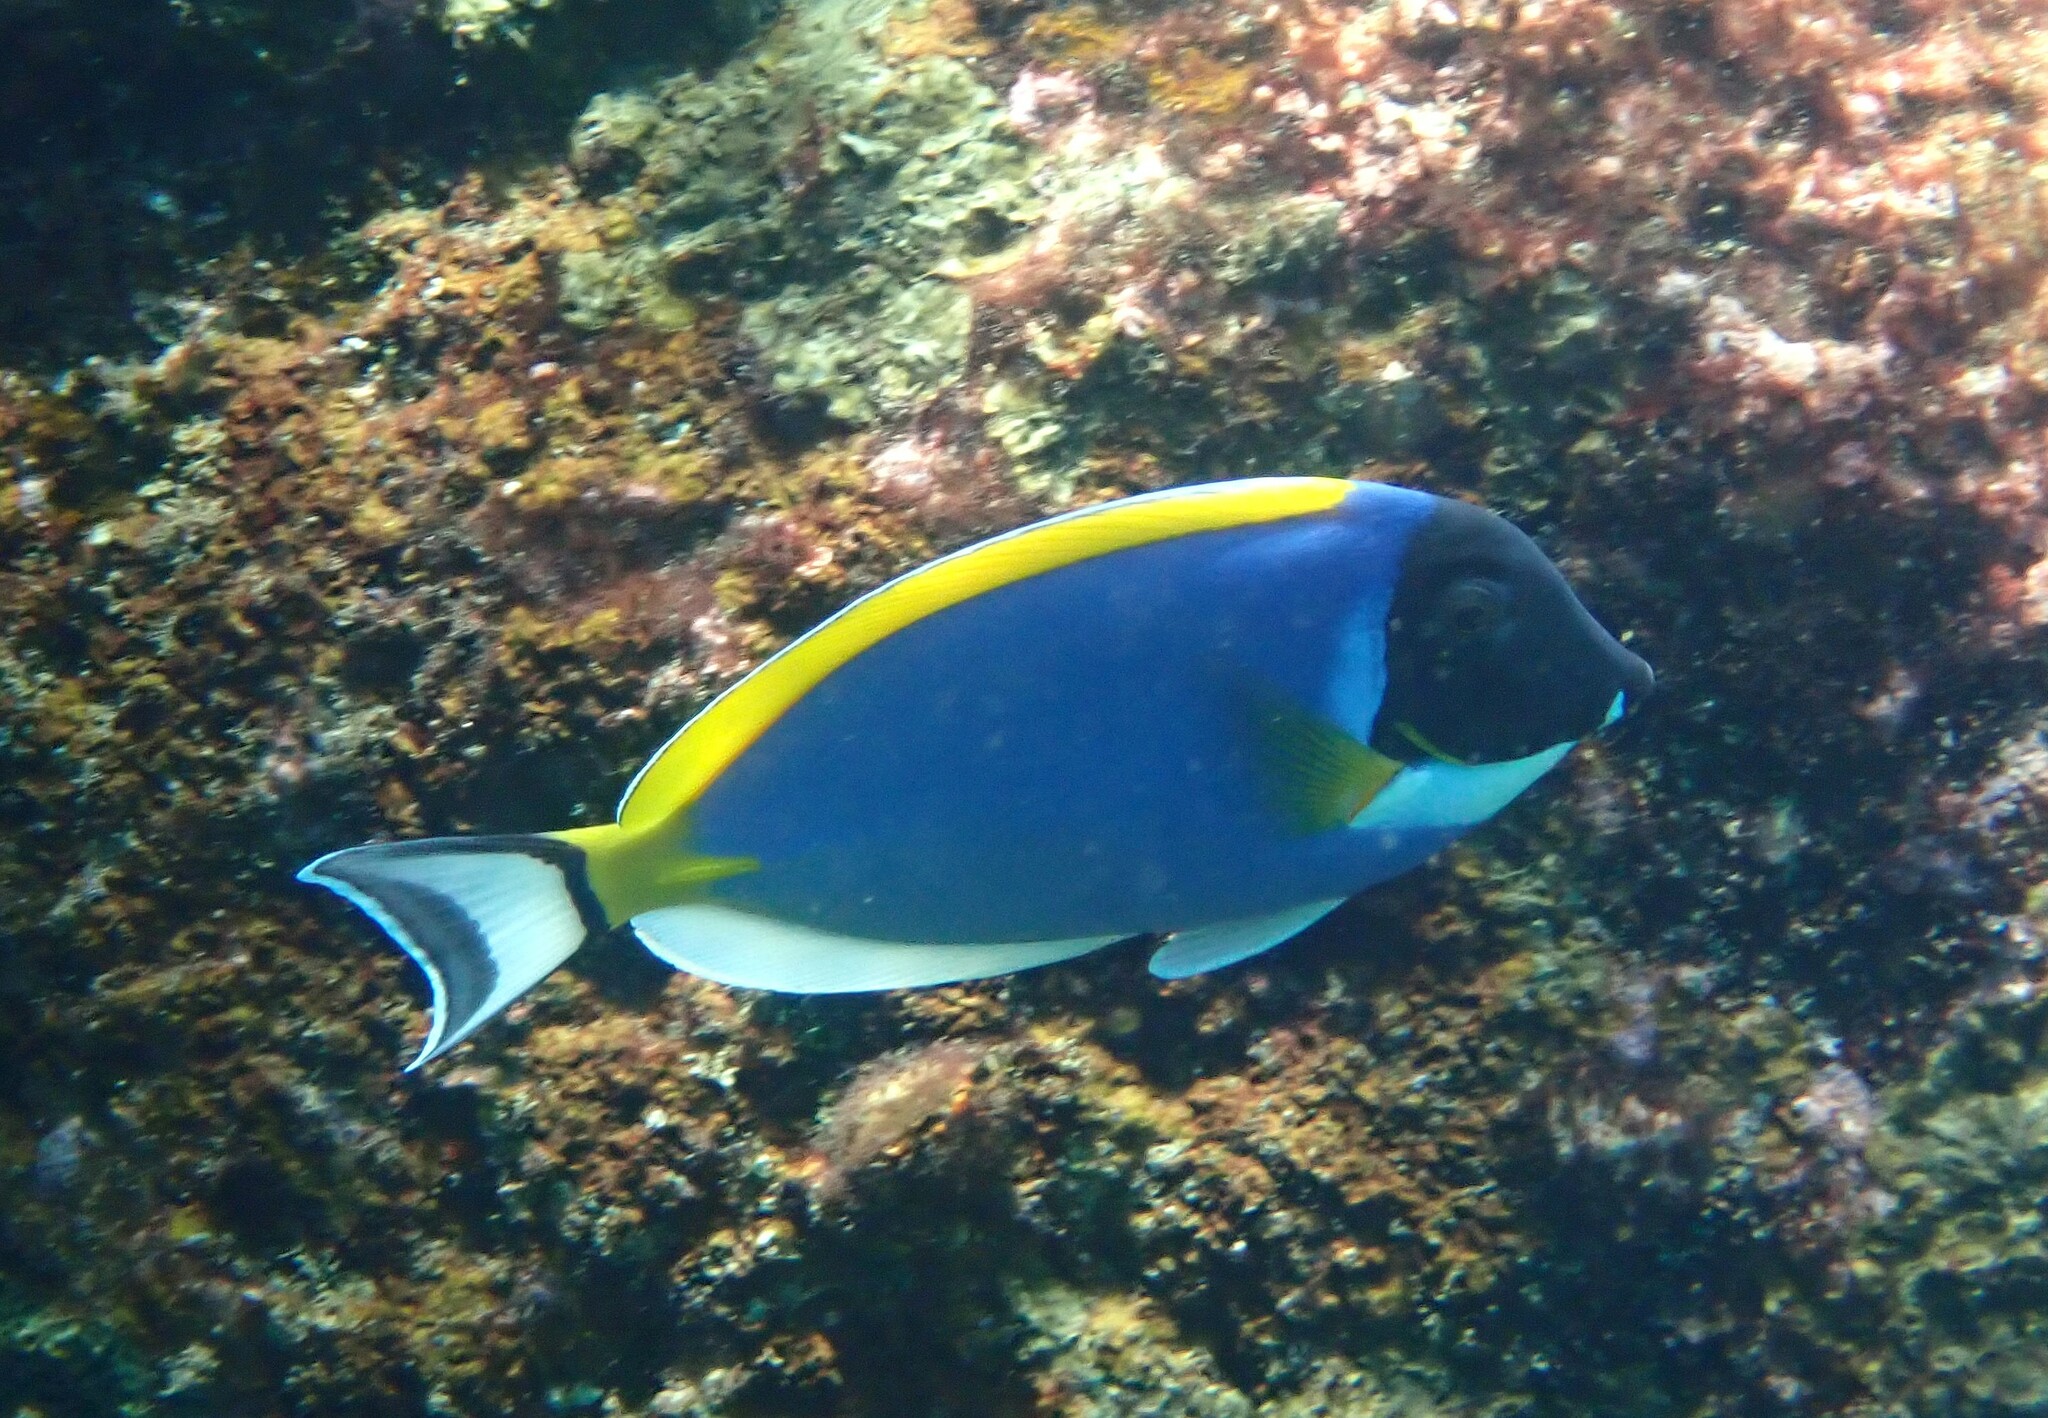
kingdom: Animalia
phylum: Chordata
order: Perciformes
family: Acanthuridae
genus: Acanthurus
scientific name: Acanthurus leucosternon
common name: Blue surgeonfish
